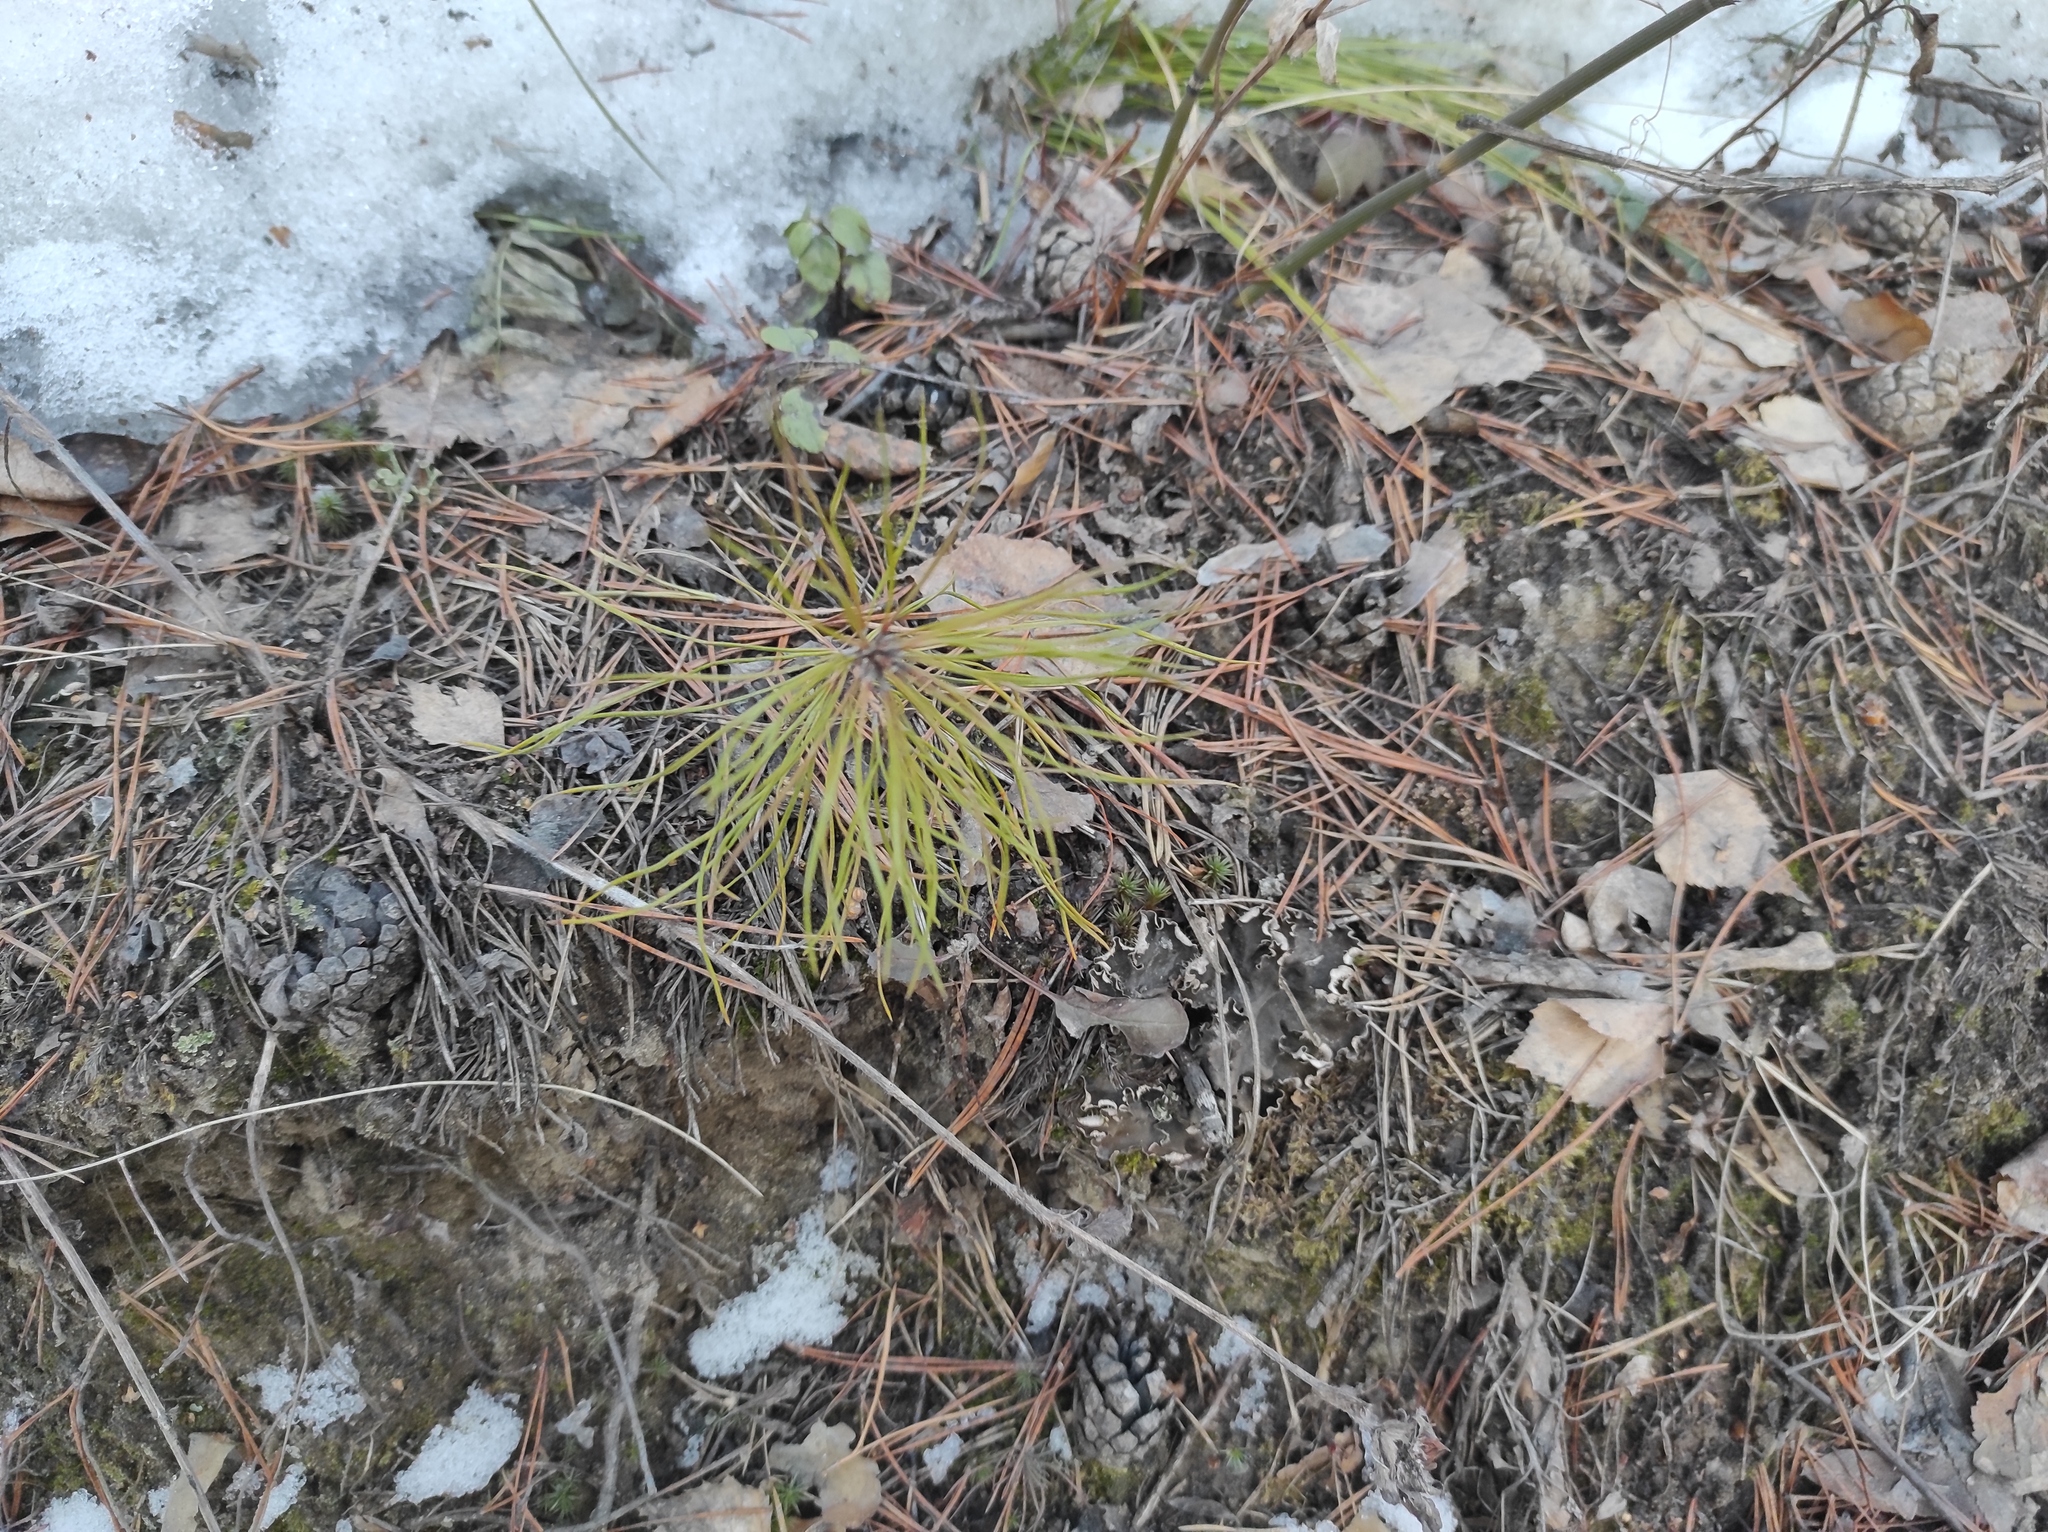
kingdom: Plantae
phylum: Tracheophyta
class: Pinopsida
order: Pinales
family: Pinaceae
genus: Pinus
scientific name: Pinus sylvestris
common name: Scots pine
